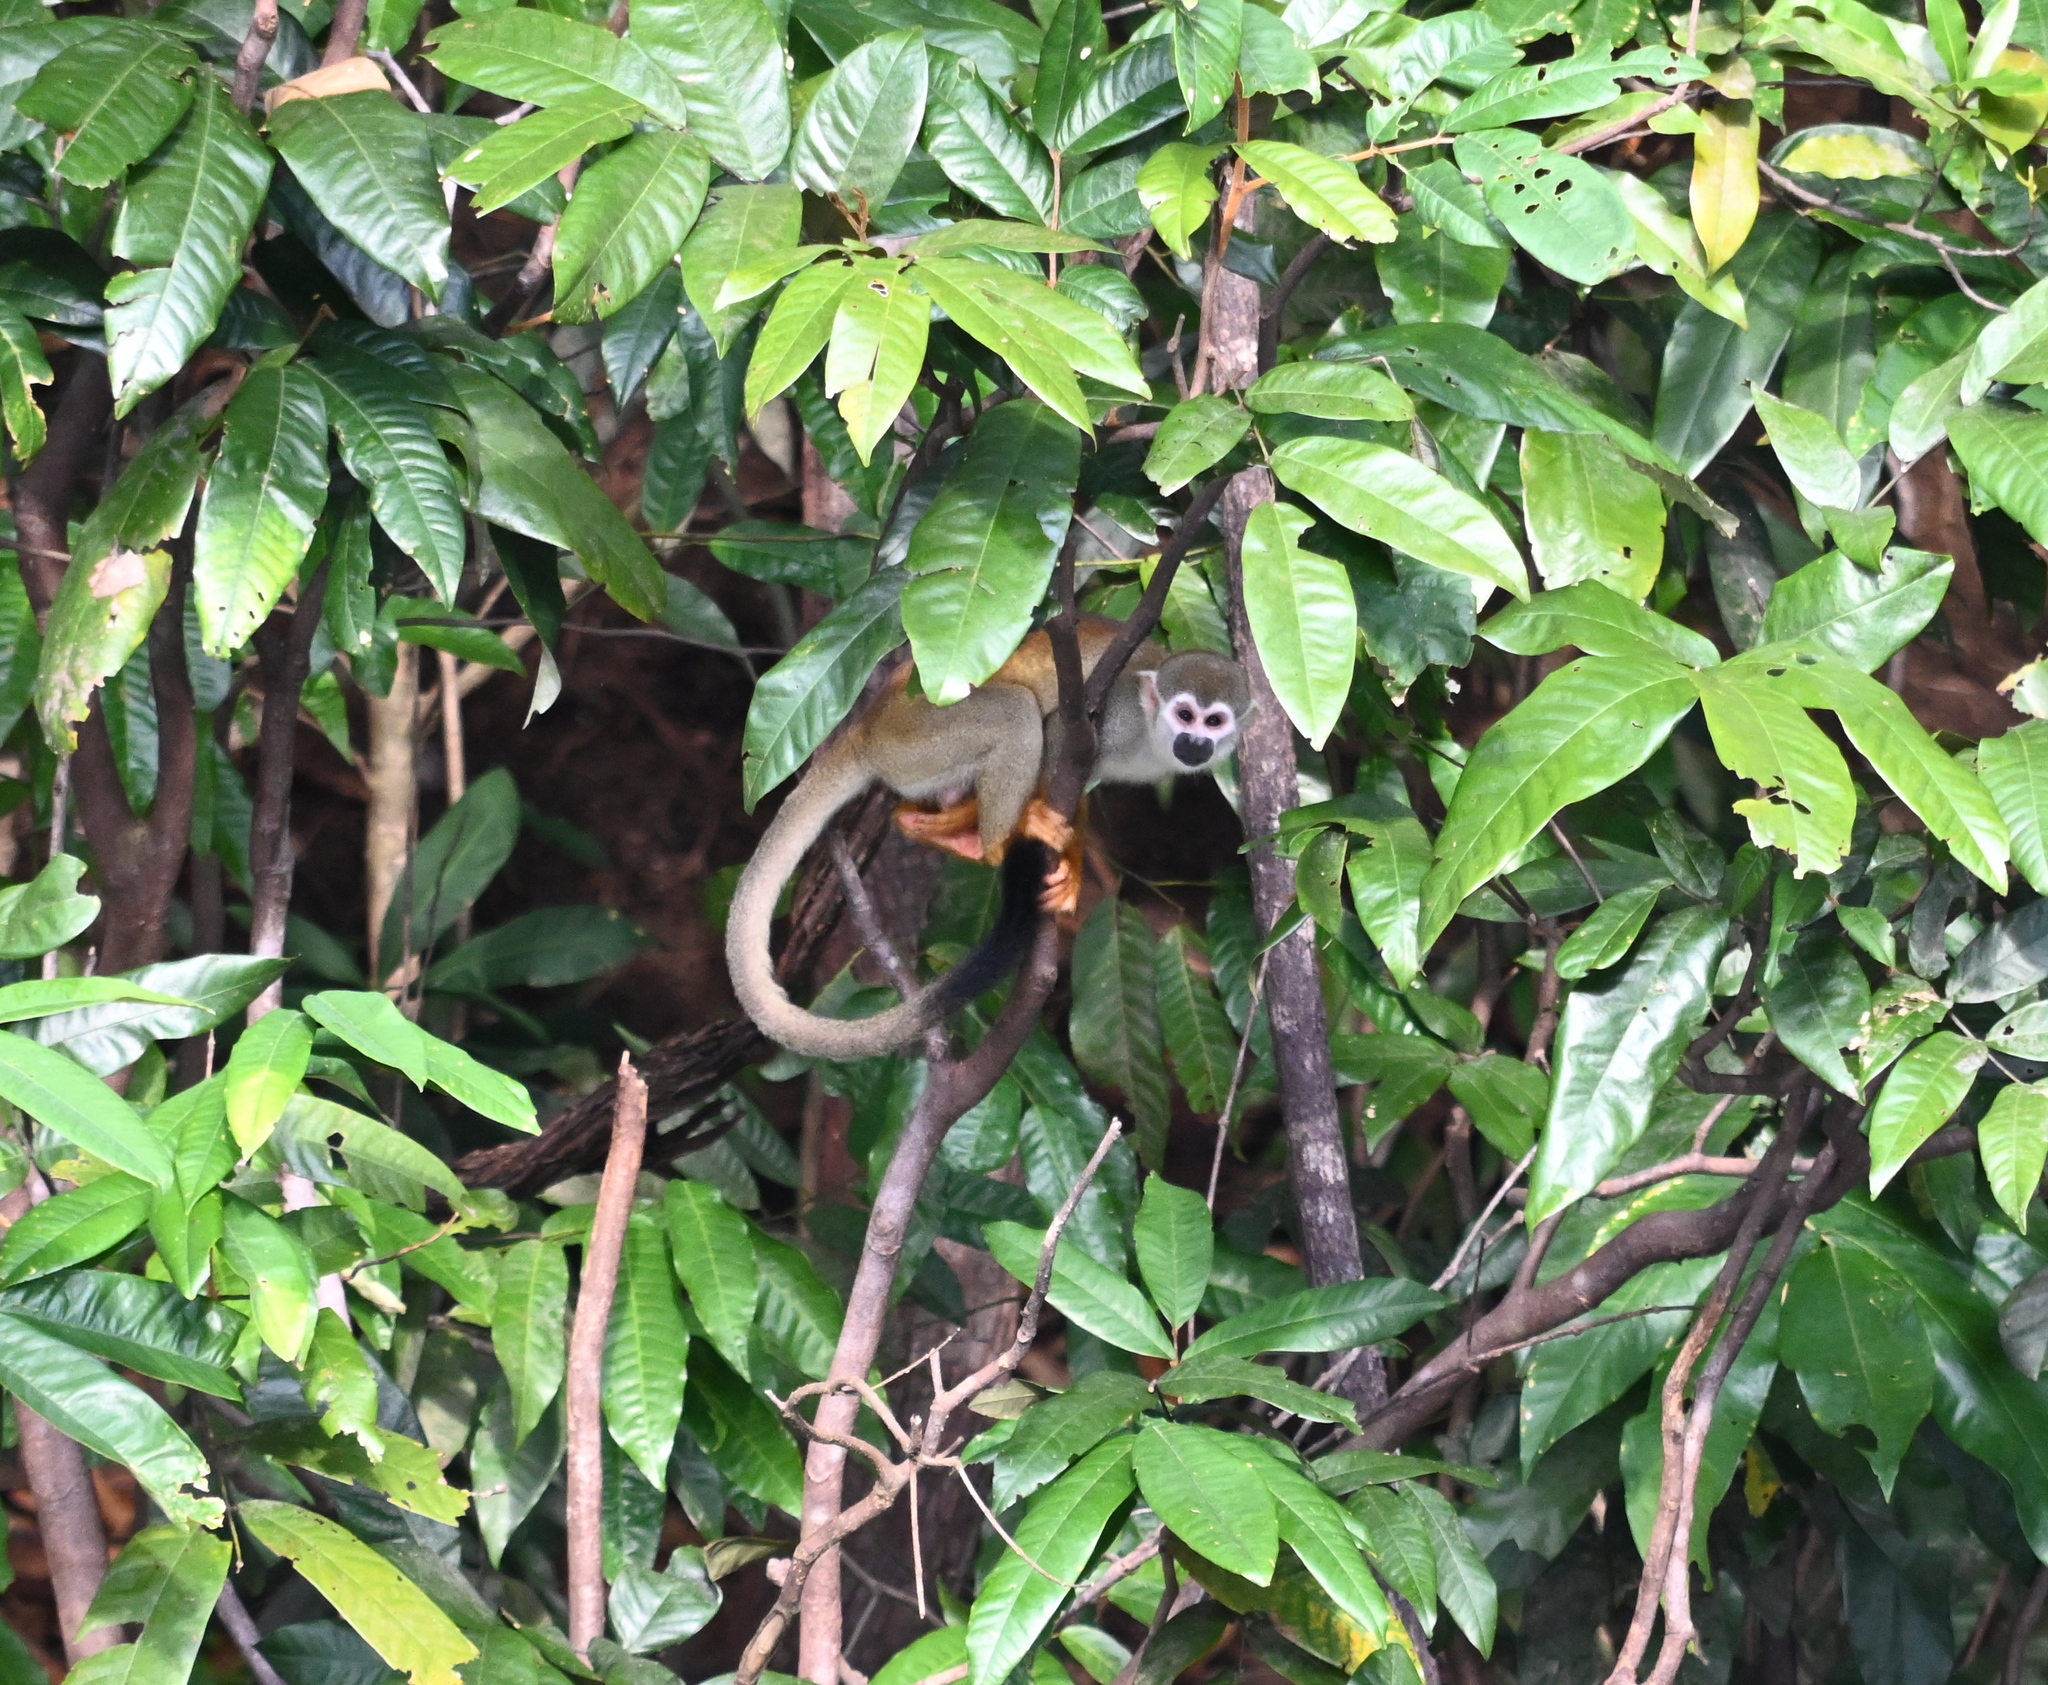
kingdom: Animalia
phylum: Chordata
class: Mammalia
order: Primates
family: Cebidae
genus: Saimiri
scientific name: Saimiri cassiquiarensis
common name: Humboldt’s squirrel monkey
